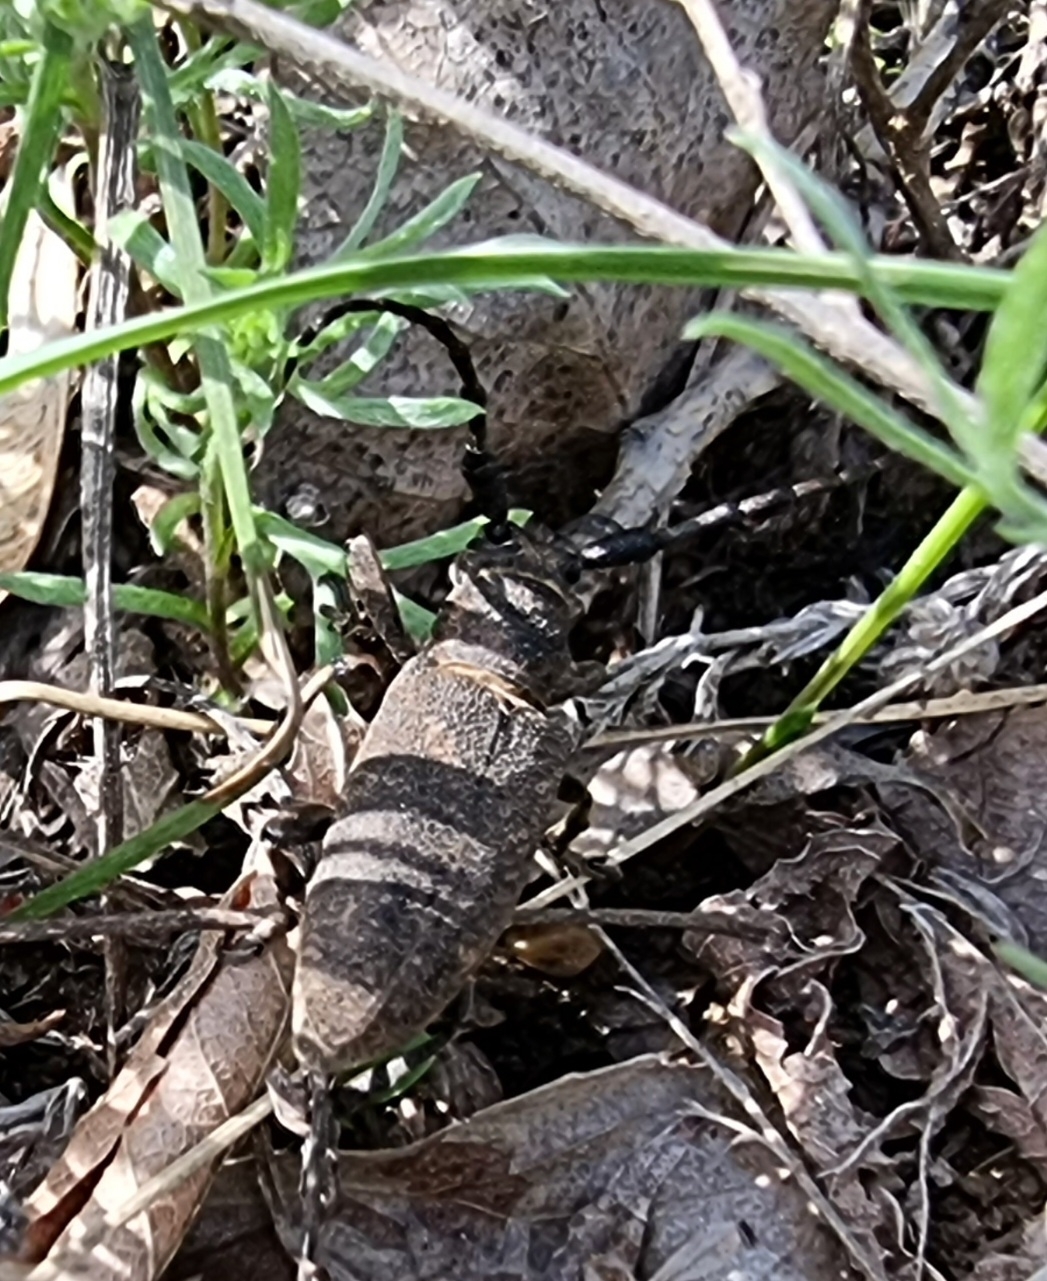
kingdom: Animalia
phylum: Arthropoda
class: Insecta
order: Coleoptera
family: Cerambycidae
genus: Lamia
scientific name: Lamia textor
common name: Weaver beetle
